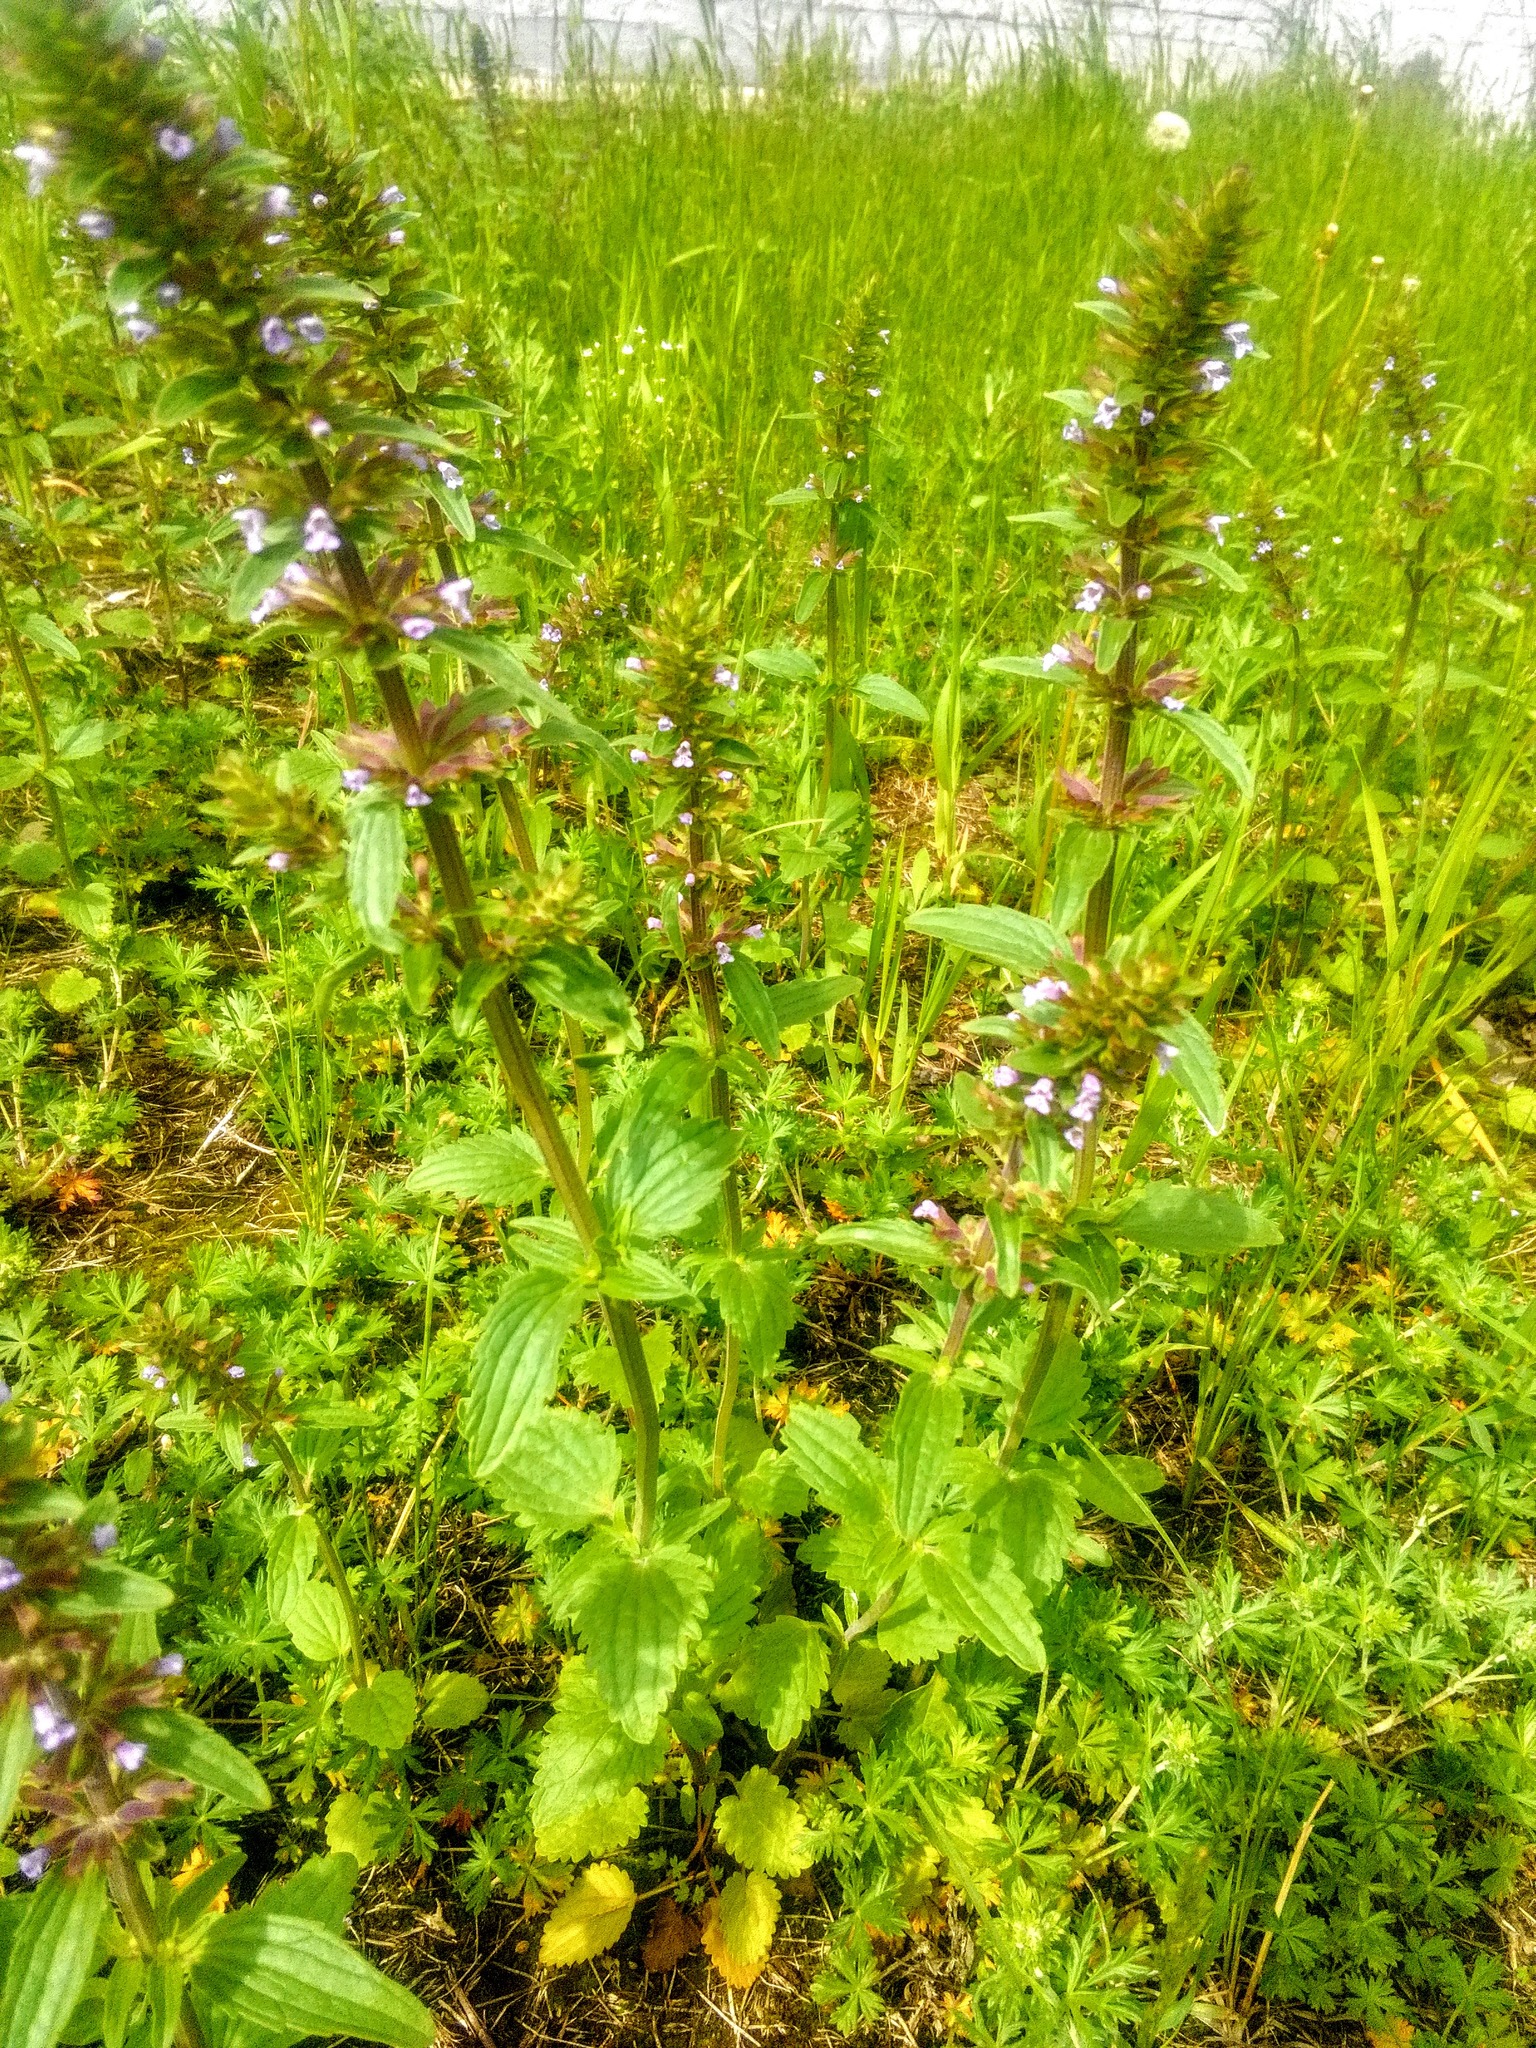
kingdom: Plantae
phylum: Tracheophyta
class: Magnoliopsida
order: Lamiales
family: Lamiaceae
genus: Dracocephalum
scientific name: Dracocephalum thymiflorum
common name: Thymeleaf dragonhead
